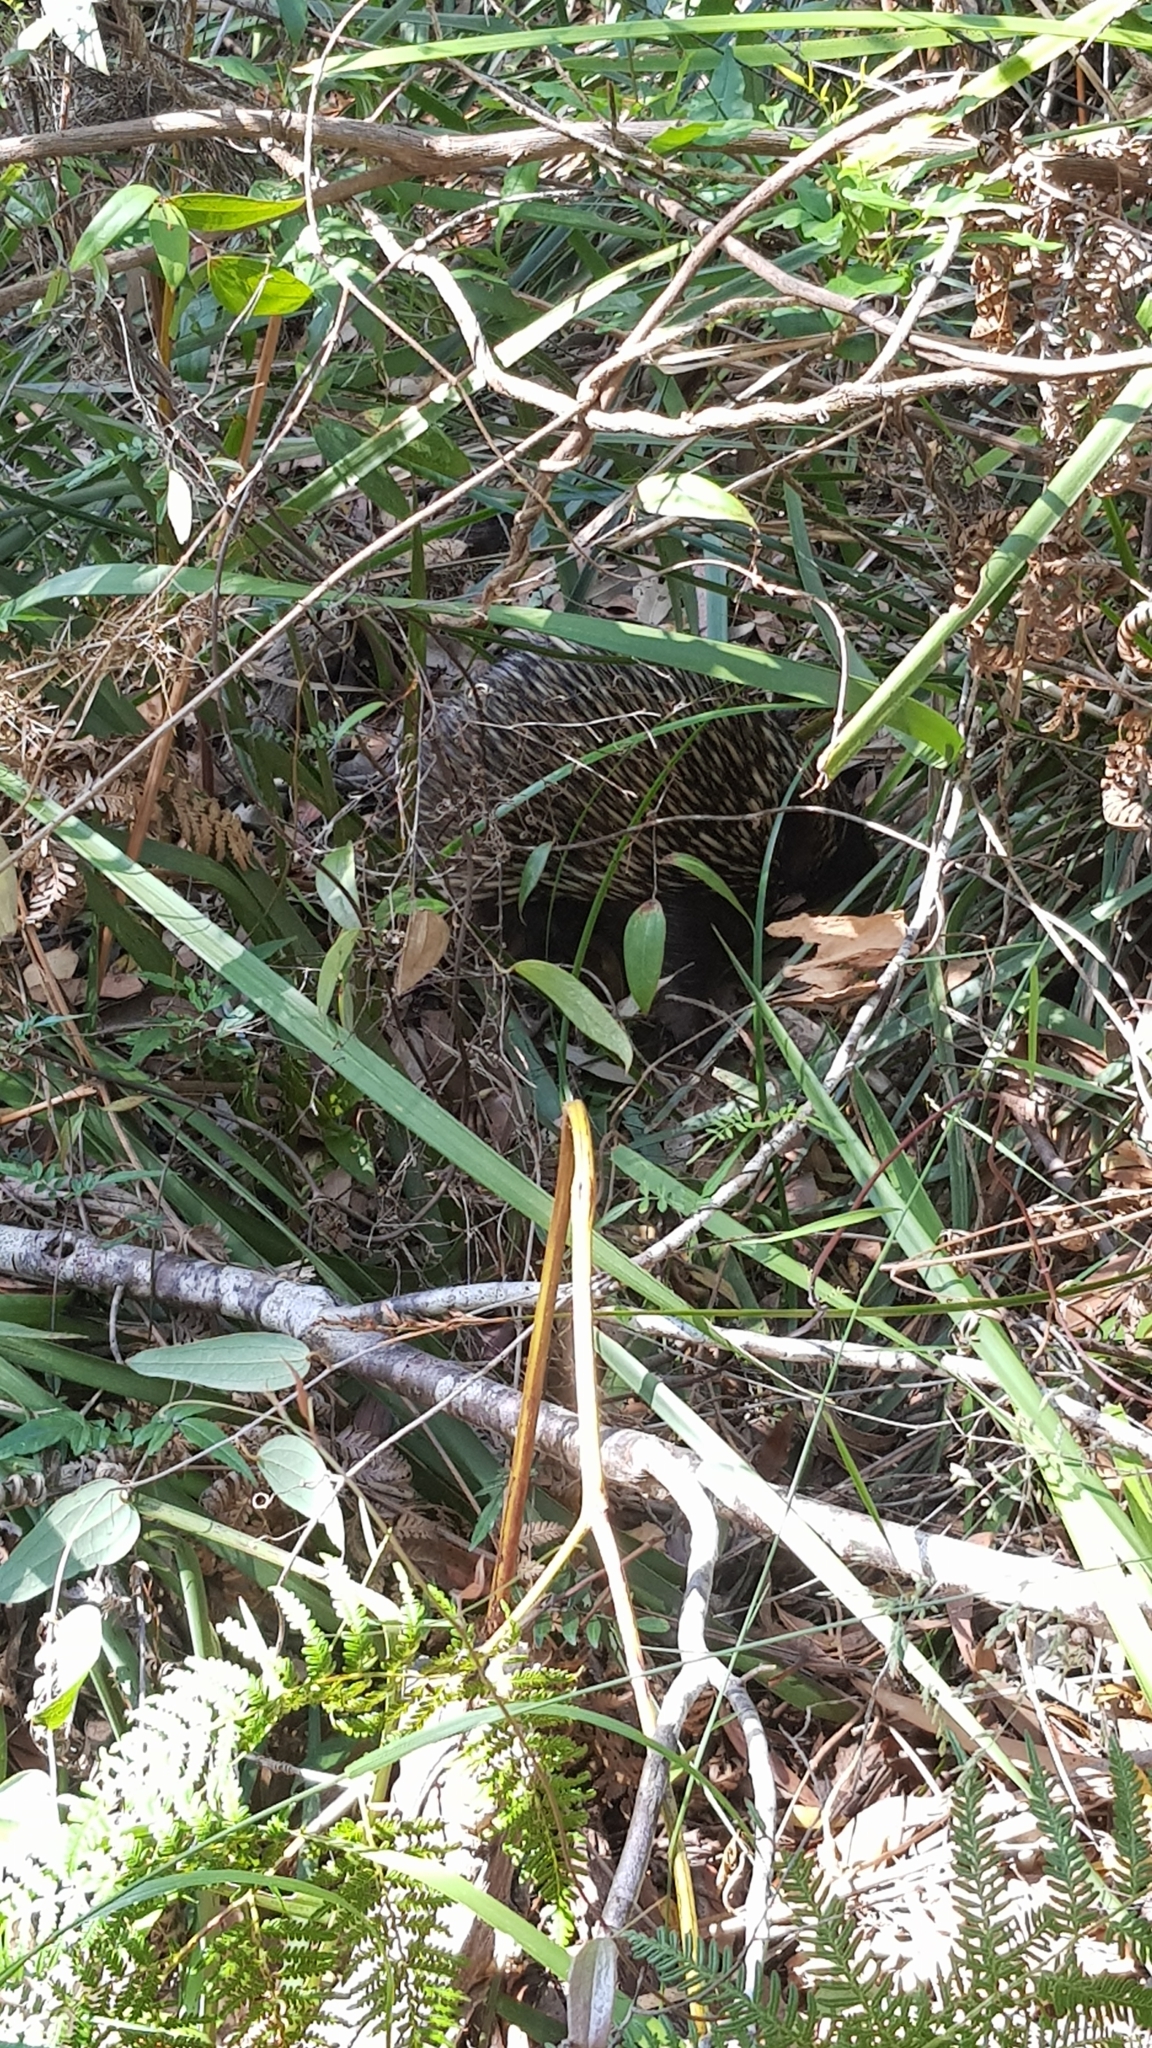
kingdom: Animalia
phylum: Chordata
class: Mammalia
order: Monotremata
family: Tachyglossidae
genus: Tachyglossus
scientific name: Tachyglossus aculeatus
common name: Short-beaked echidna
